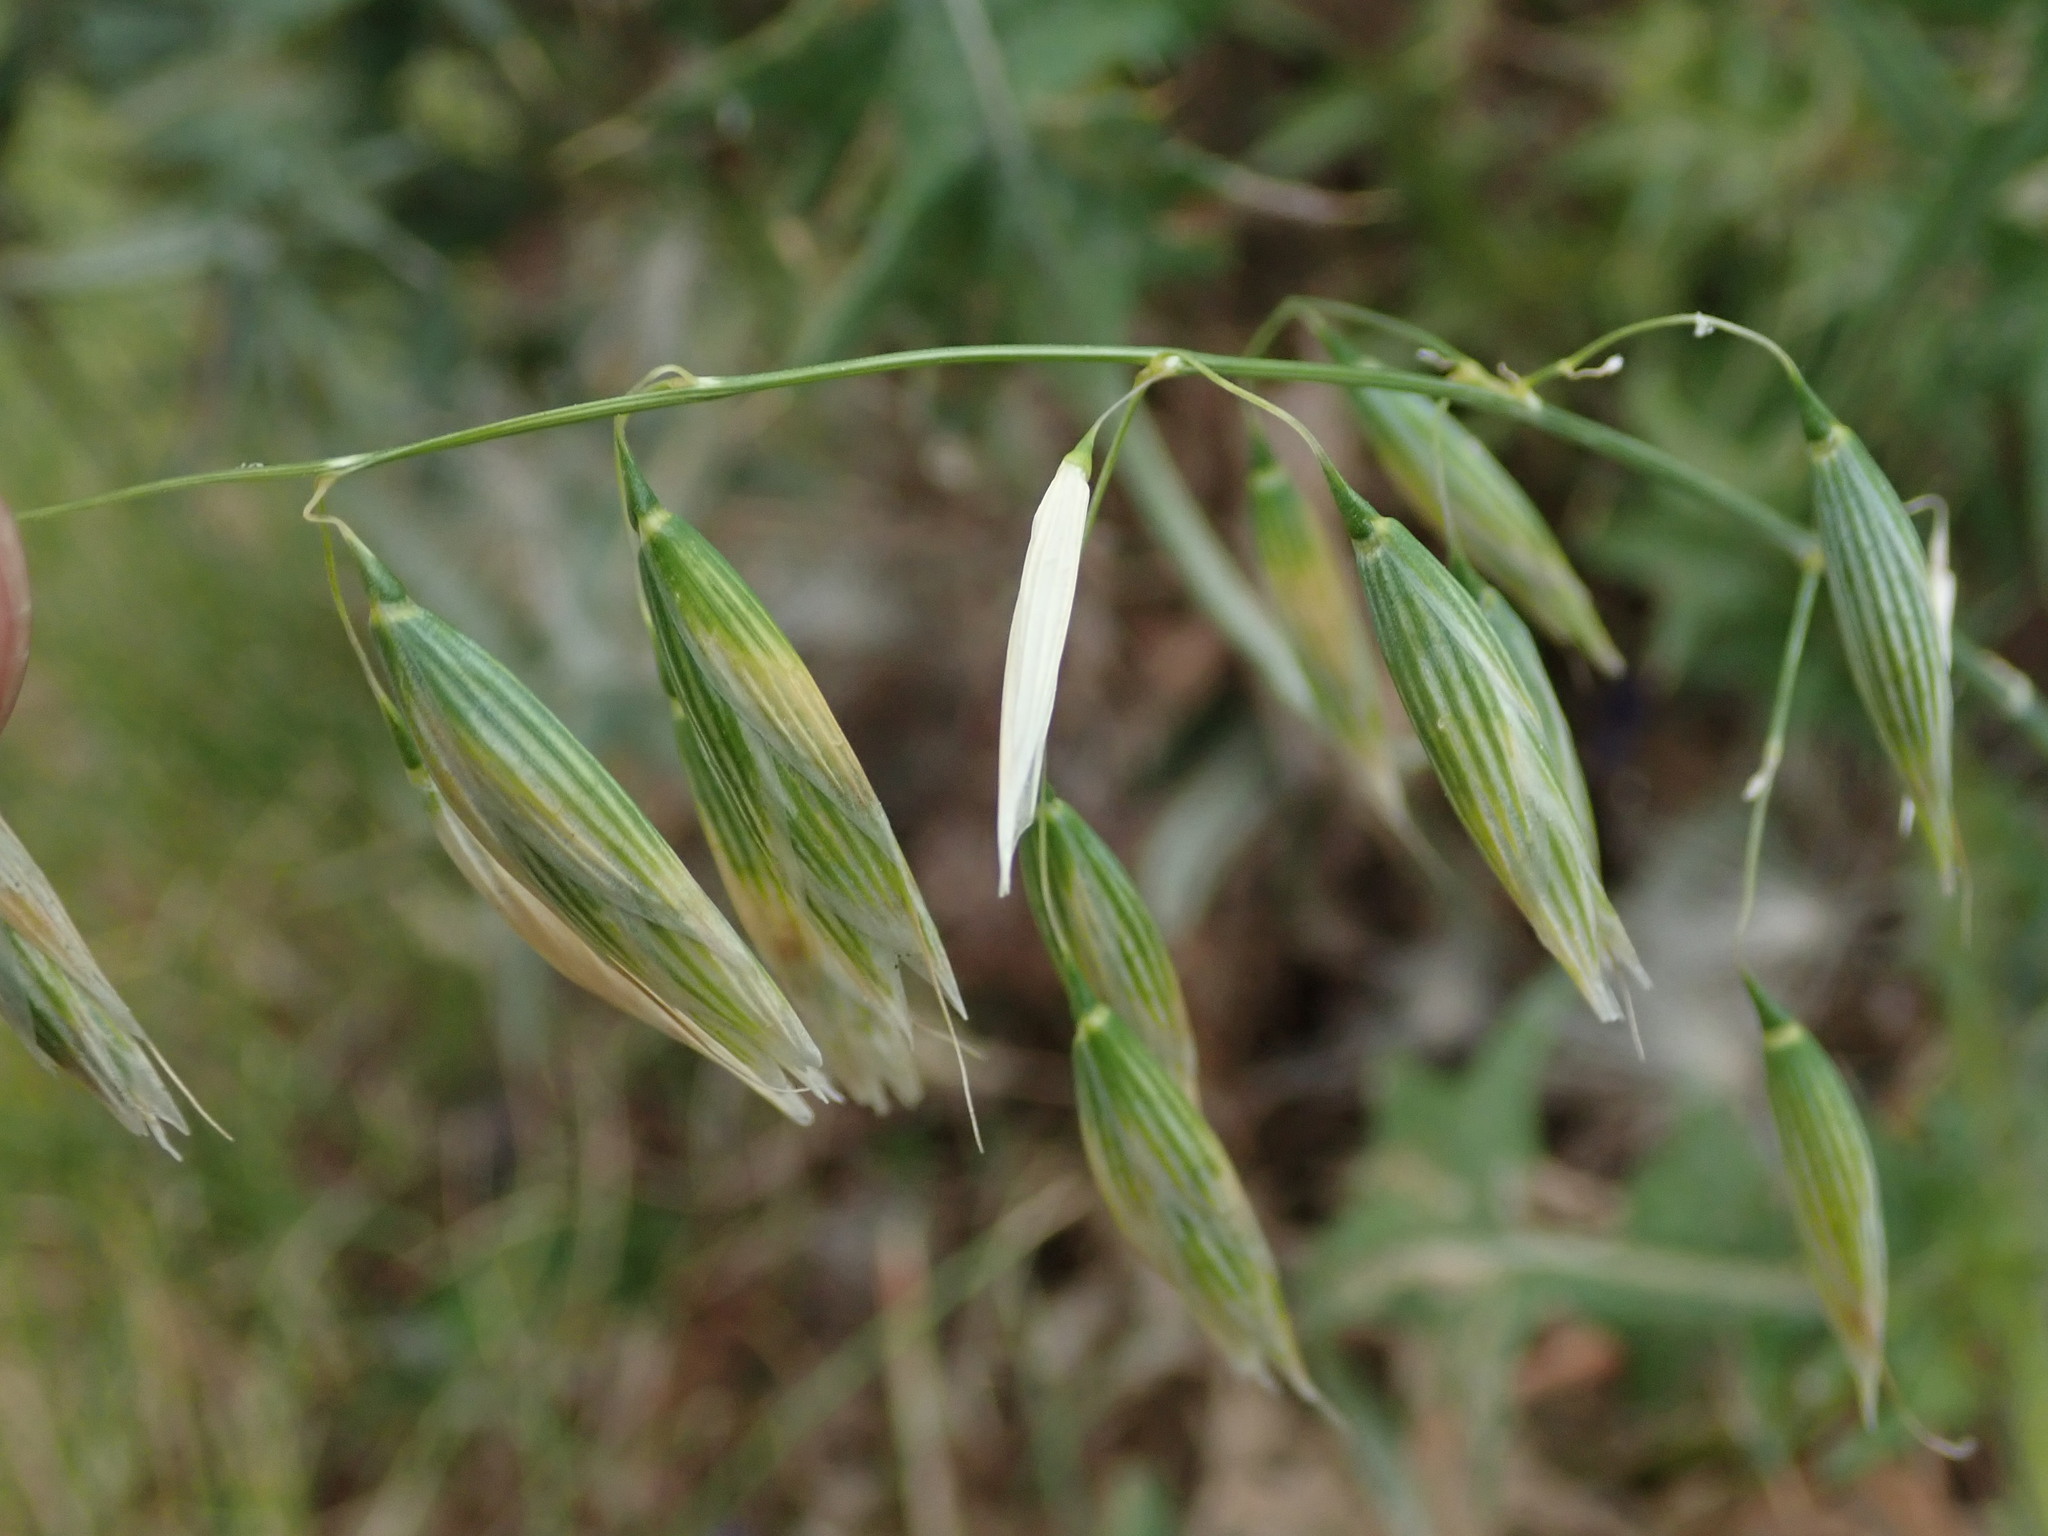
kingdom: Plantae
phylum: Tracheophyta
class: Liliopsida
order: Poales
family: Poaceae
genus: Avena
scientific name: Avena sativa
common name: Oat
